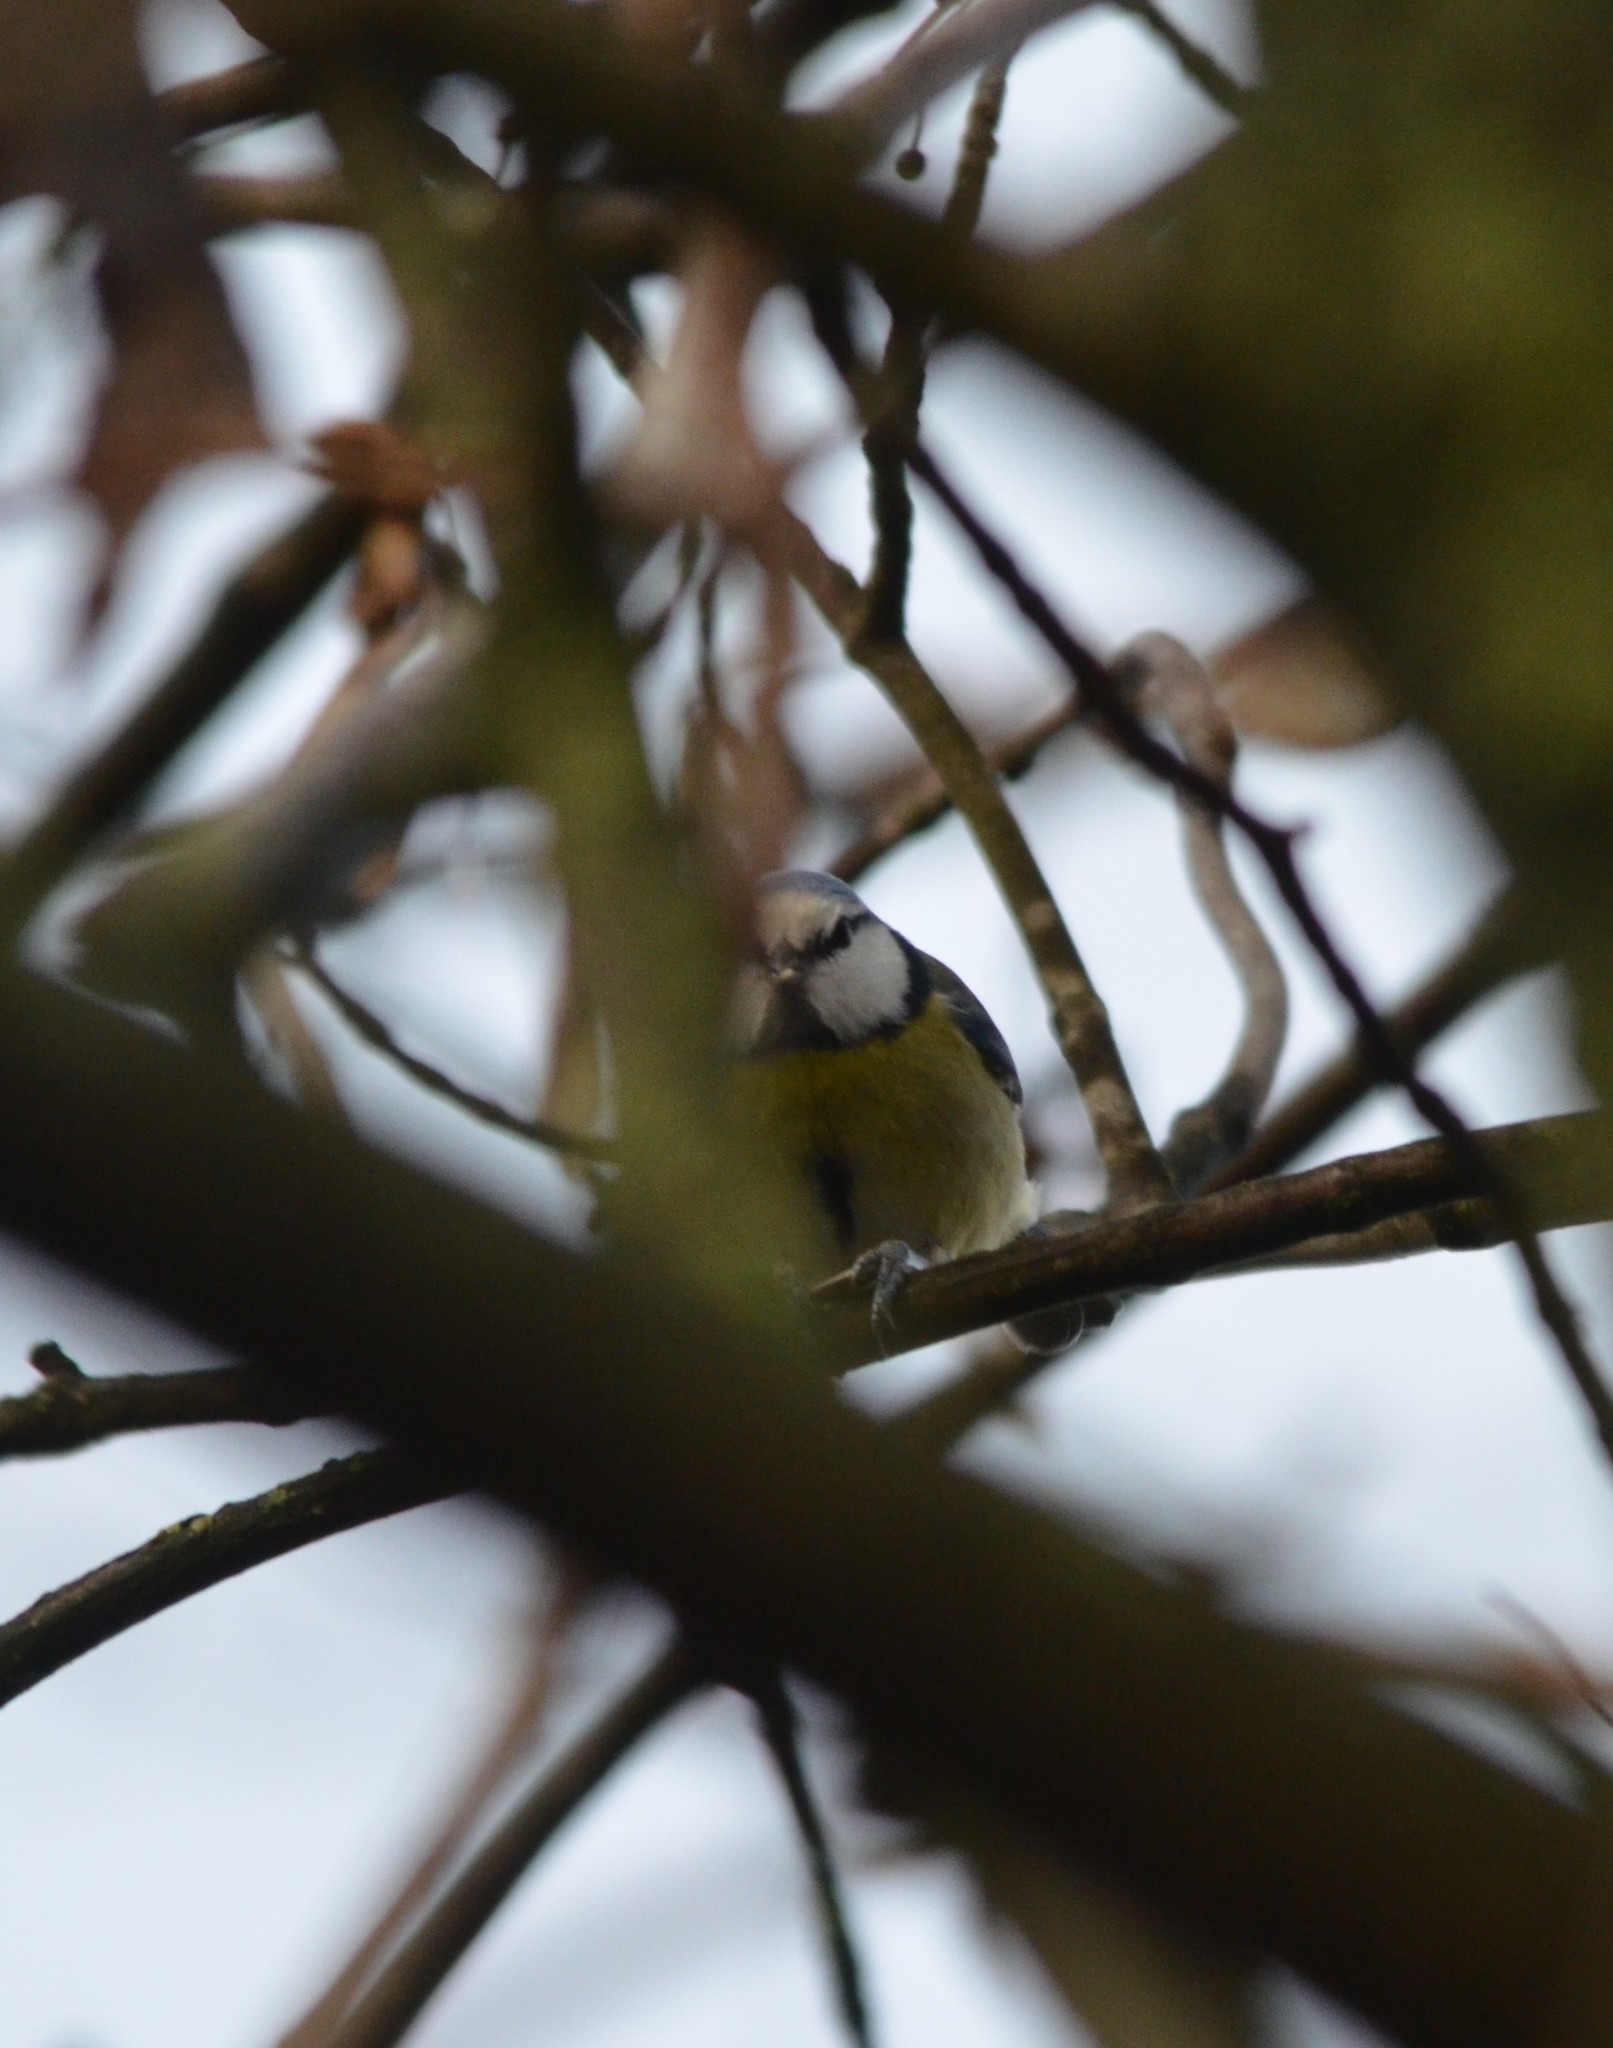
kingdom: Animalia
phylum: Chordata
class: Aves
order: Passeriformes
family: Paridae
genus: Cyanistes
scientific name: Cyanistes caeruleus
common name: Eurasian blue tit
